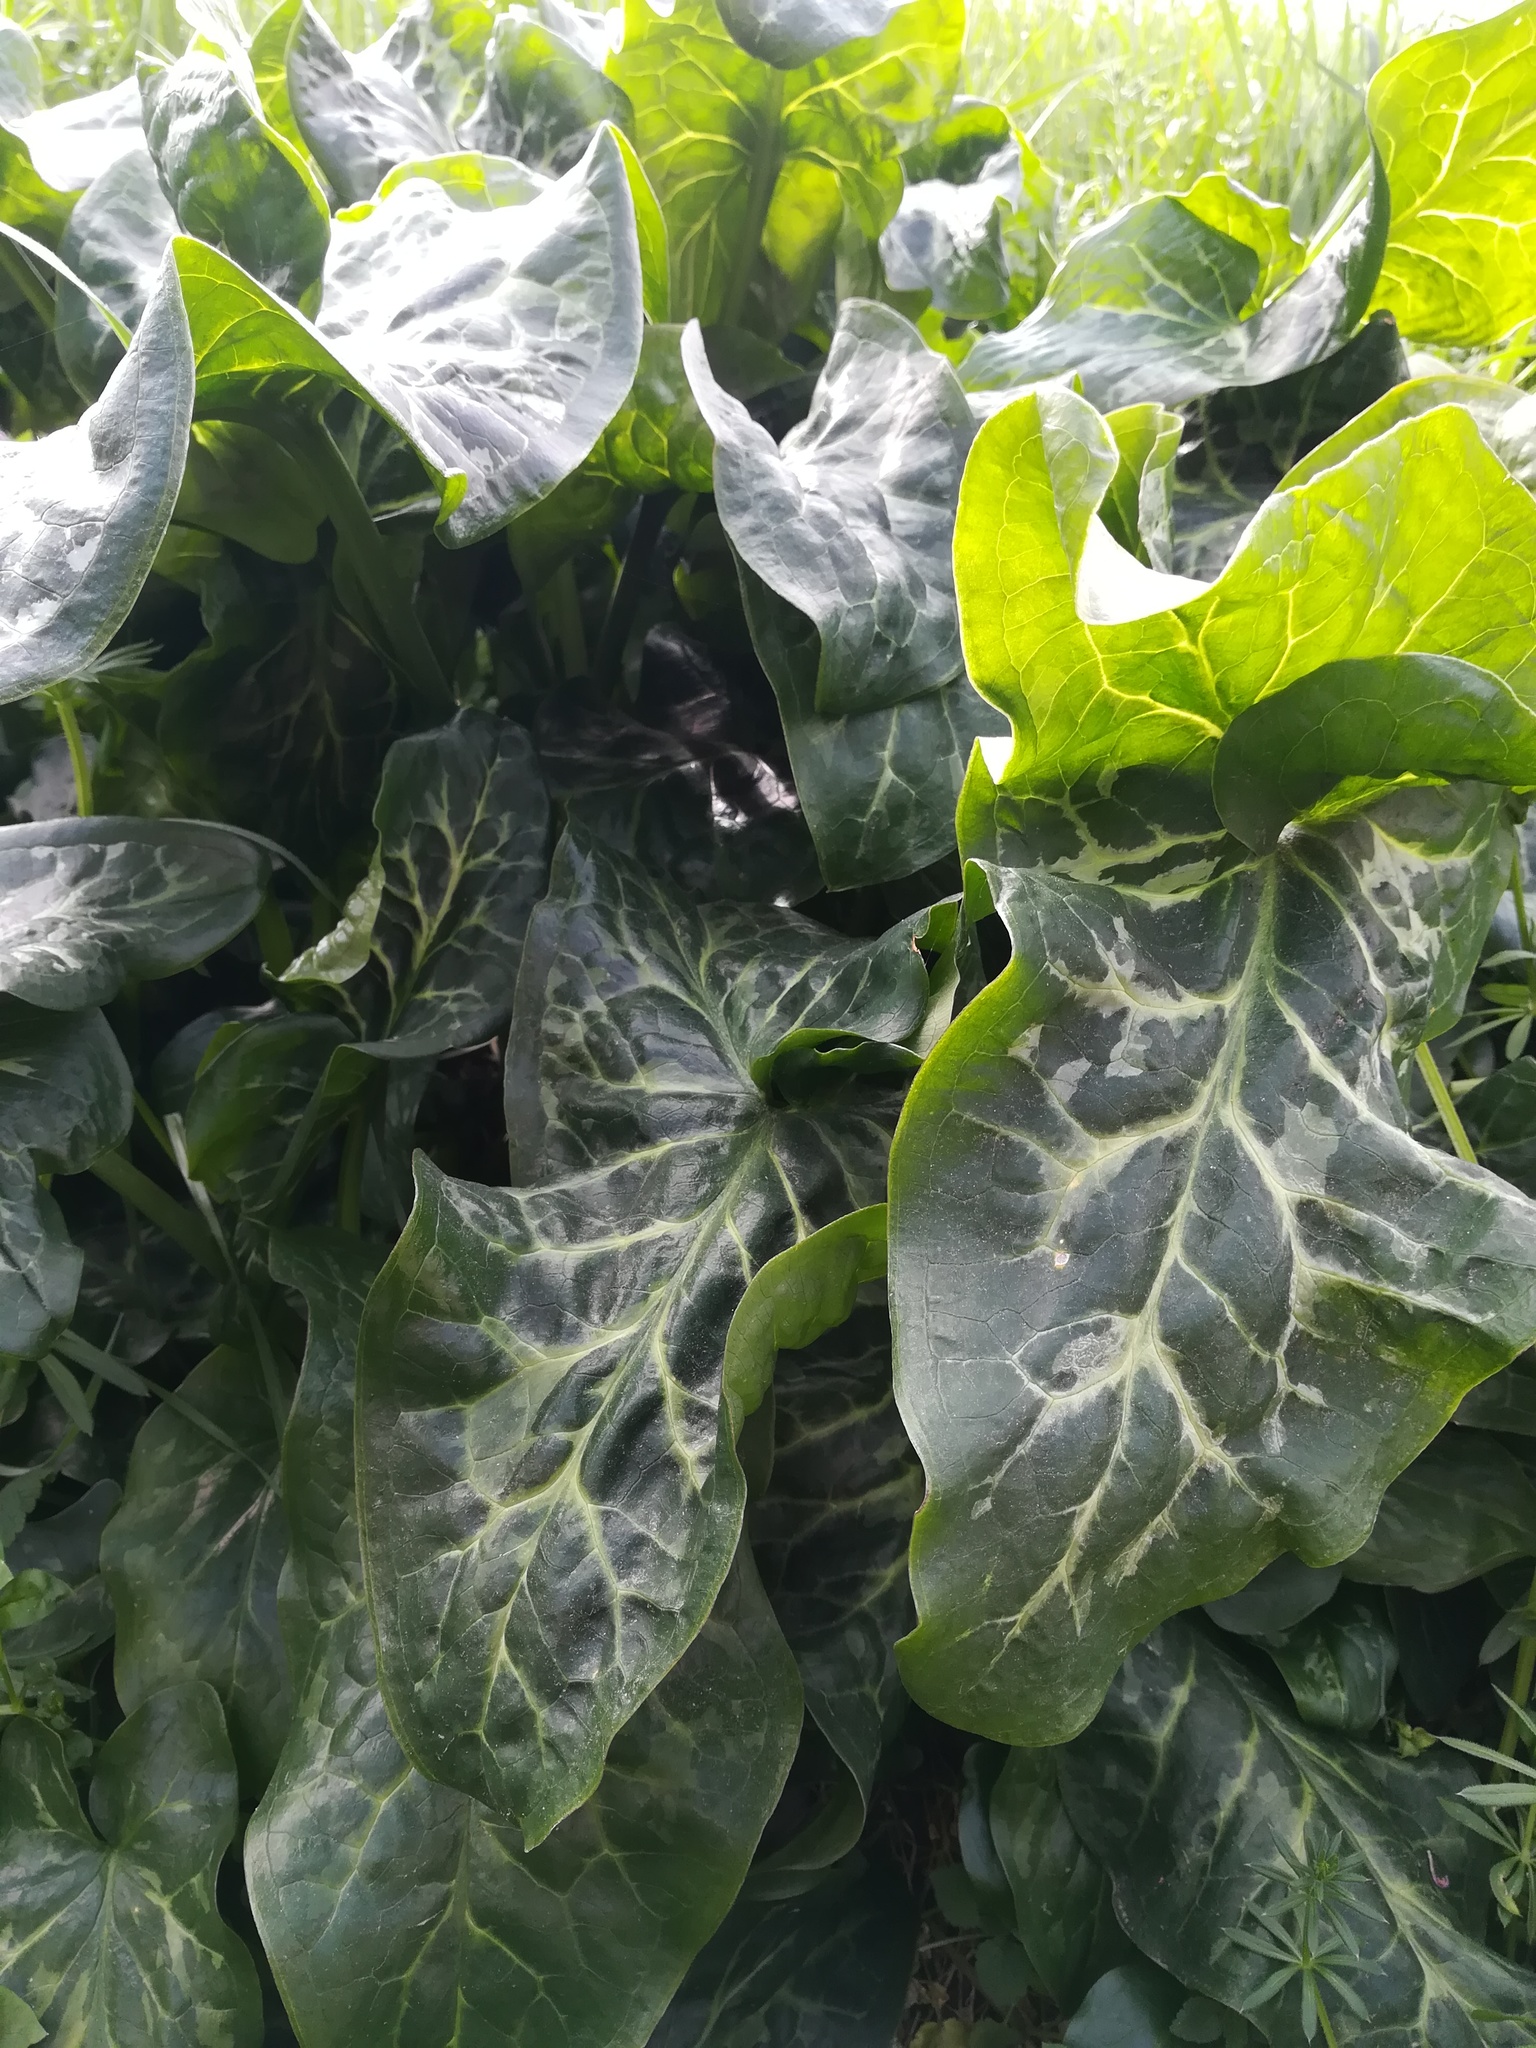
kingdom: Plantae
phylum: Tracheophyta
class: Liliopsida
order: Alismatales
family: Araceae
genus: Arum
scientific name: Arum italicum
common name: Italian lords-and-ladies
